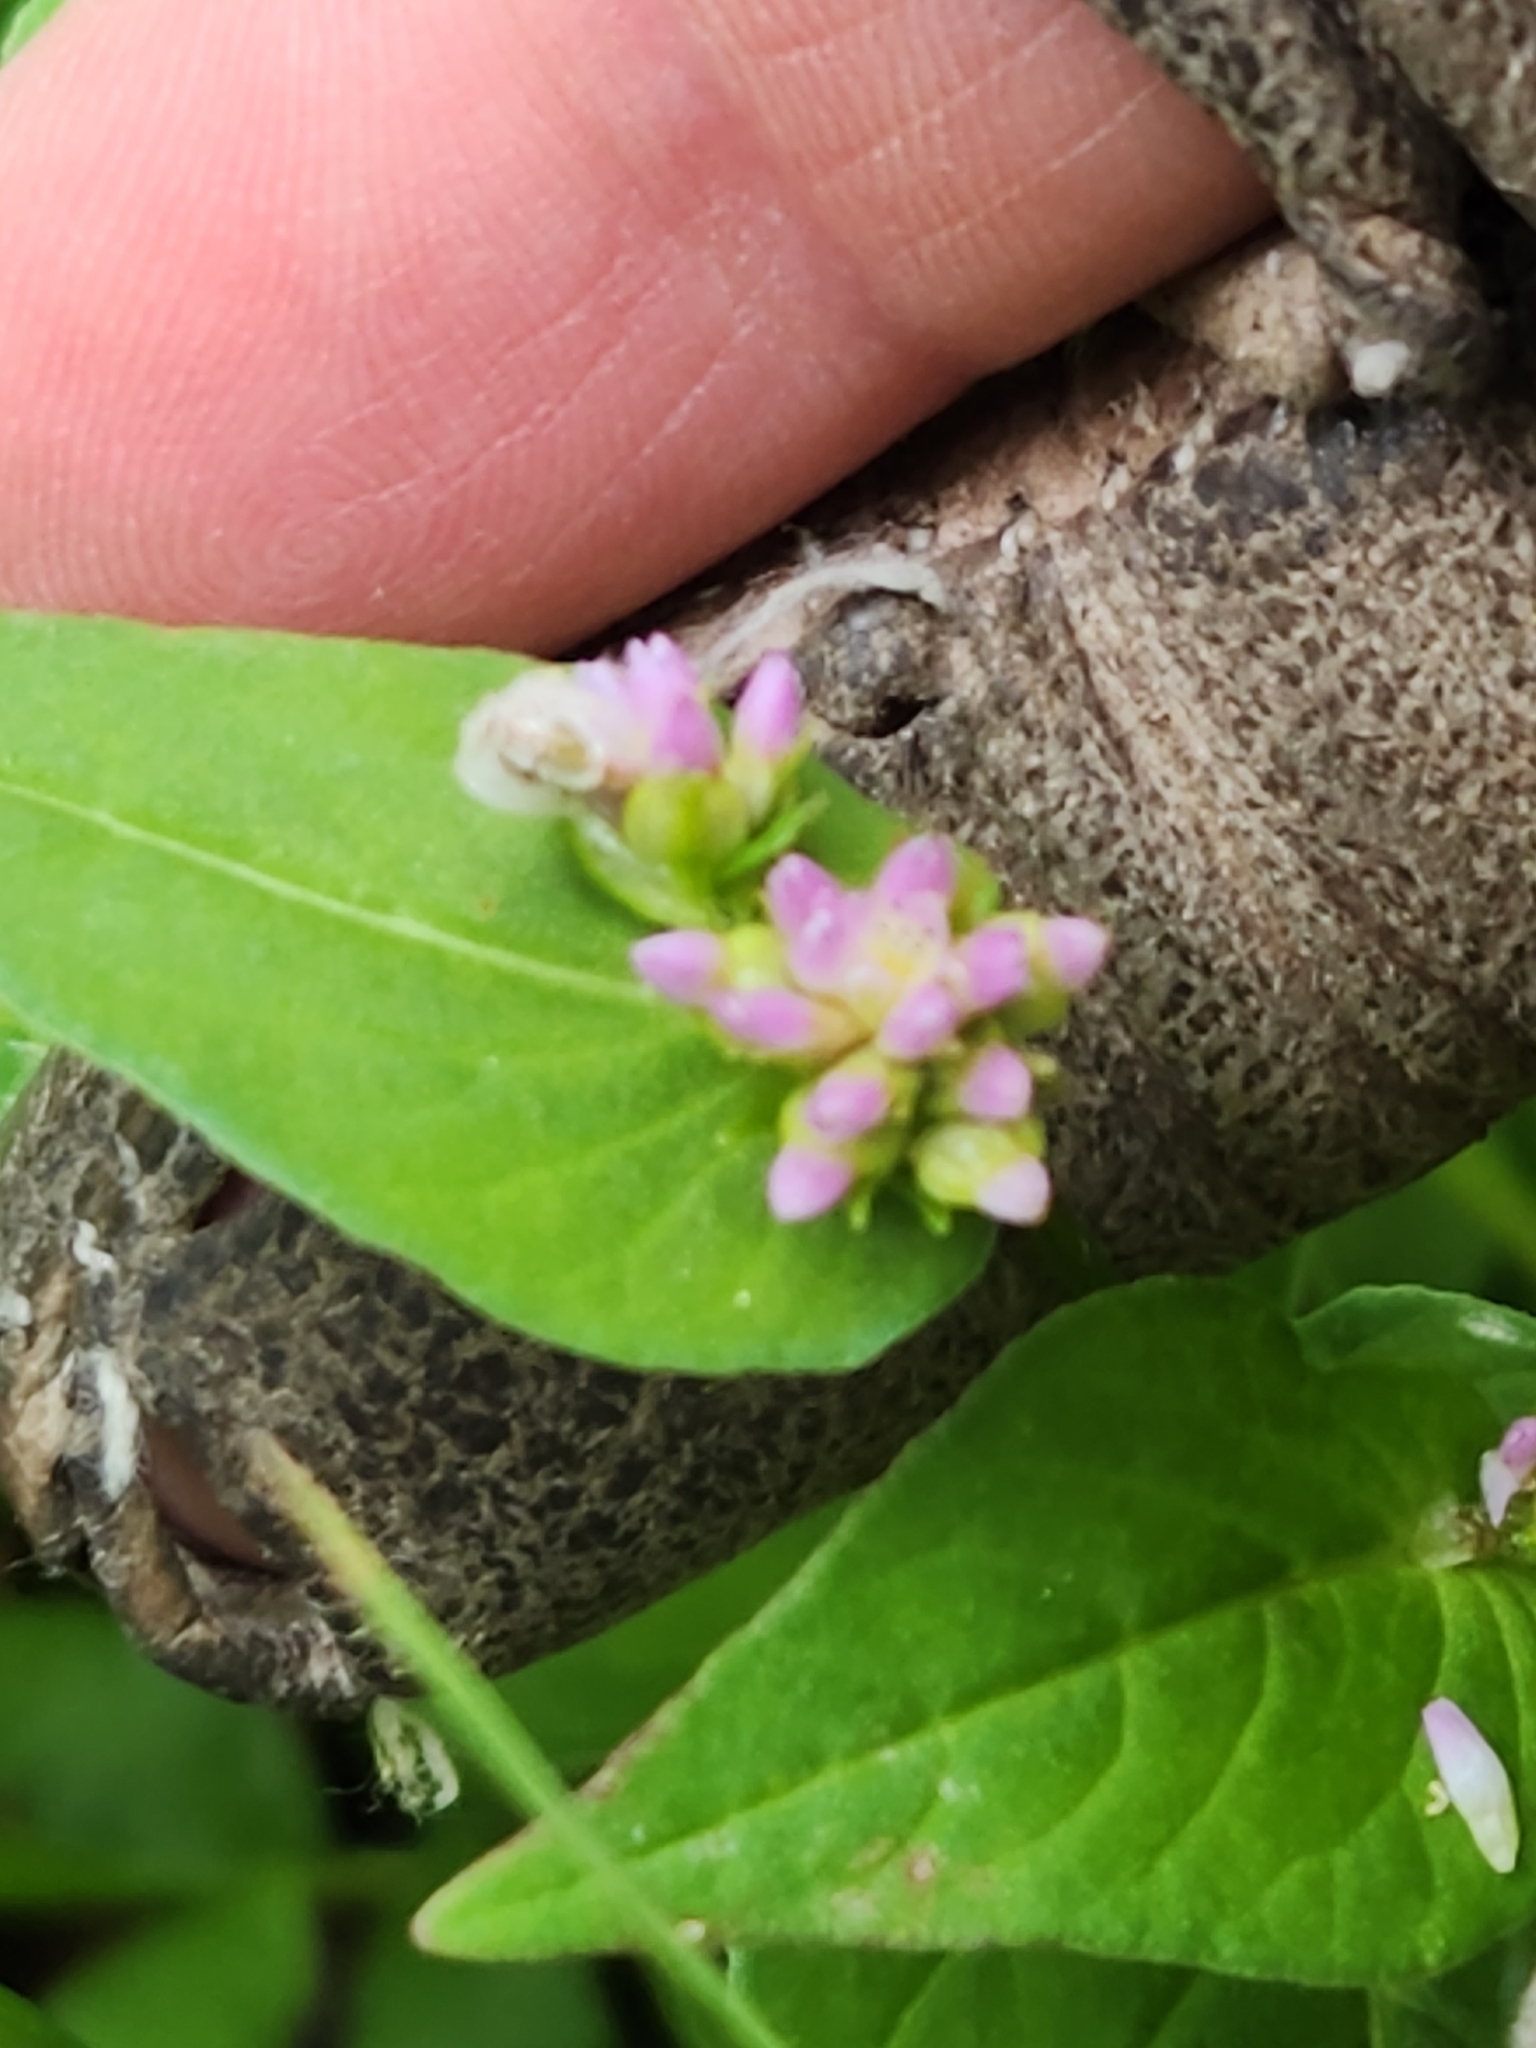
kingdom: Plantae
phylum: Tracheophyta
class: Magnoliopsida
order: Caryophyllales
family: Polygonaceae
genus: Persicaria
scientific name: Persicaria nepalensis
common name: Nepal persicaria
